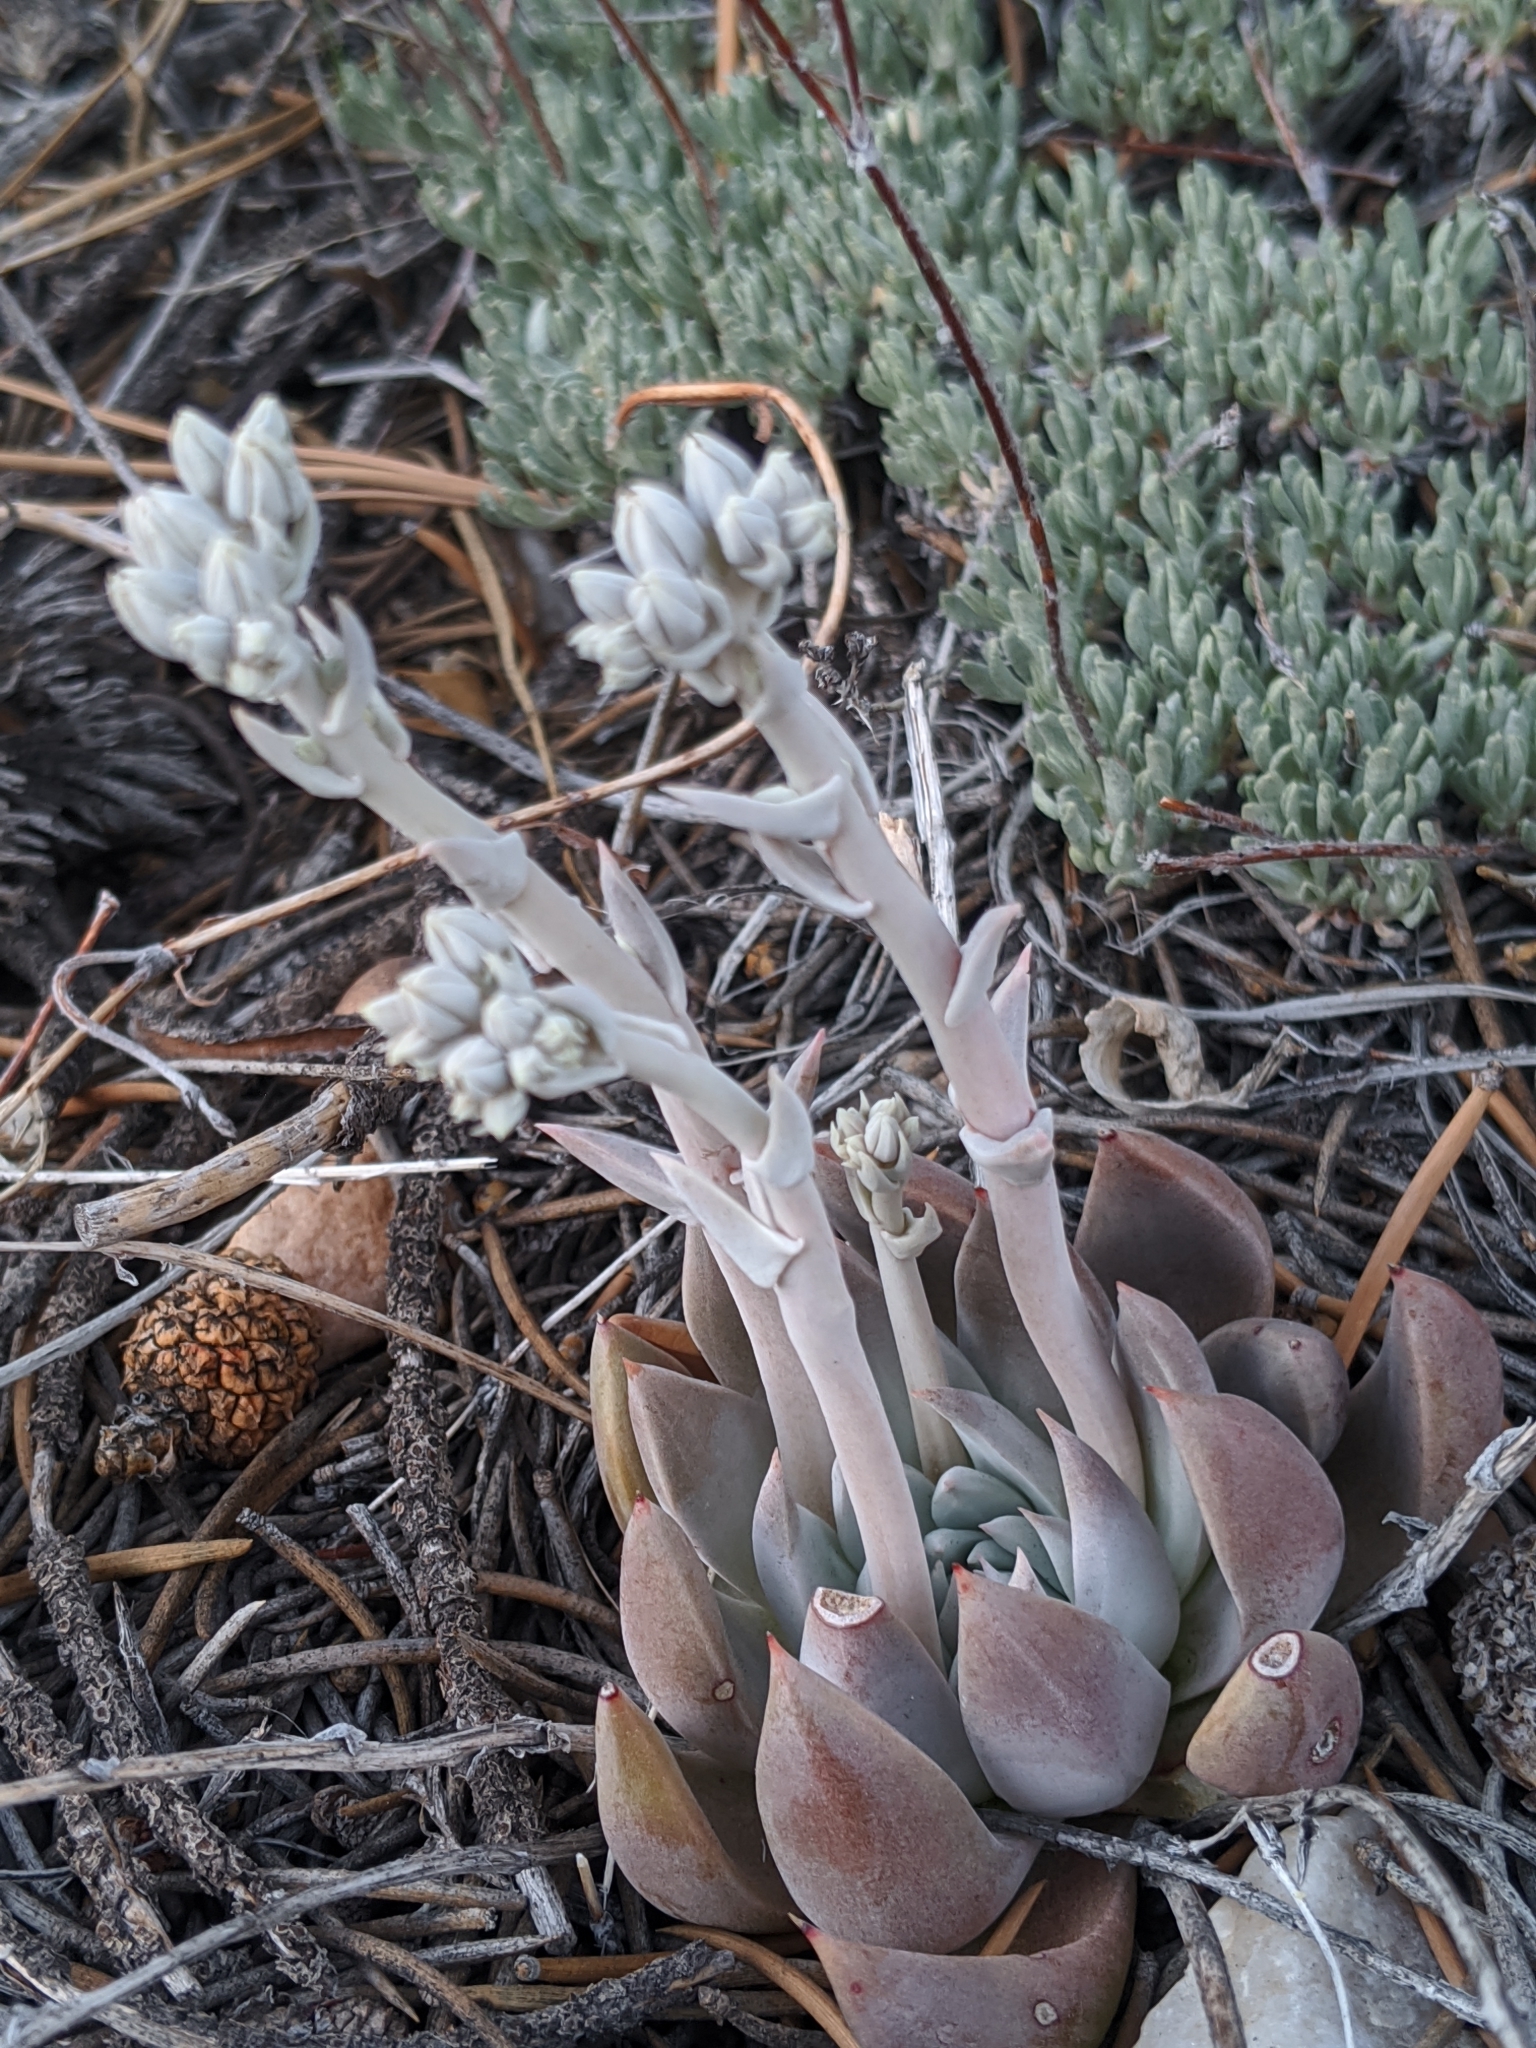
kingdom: Plantae
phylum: Tracheophyta
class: Magnoliopsida
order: Saxifragales
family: Crassulaceae
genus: Dudleya
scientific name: Dudleya abramsii
